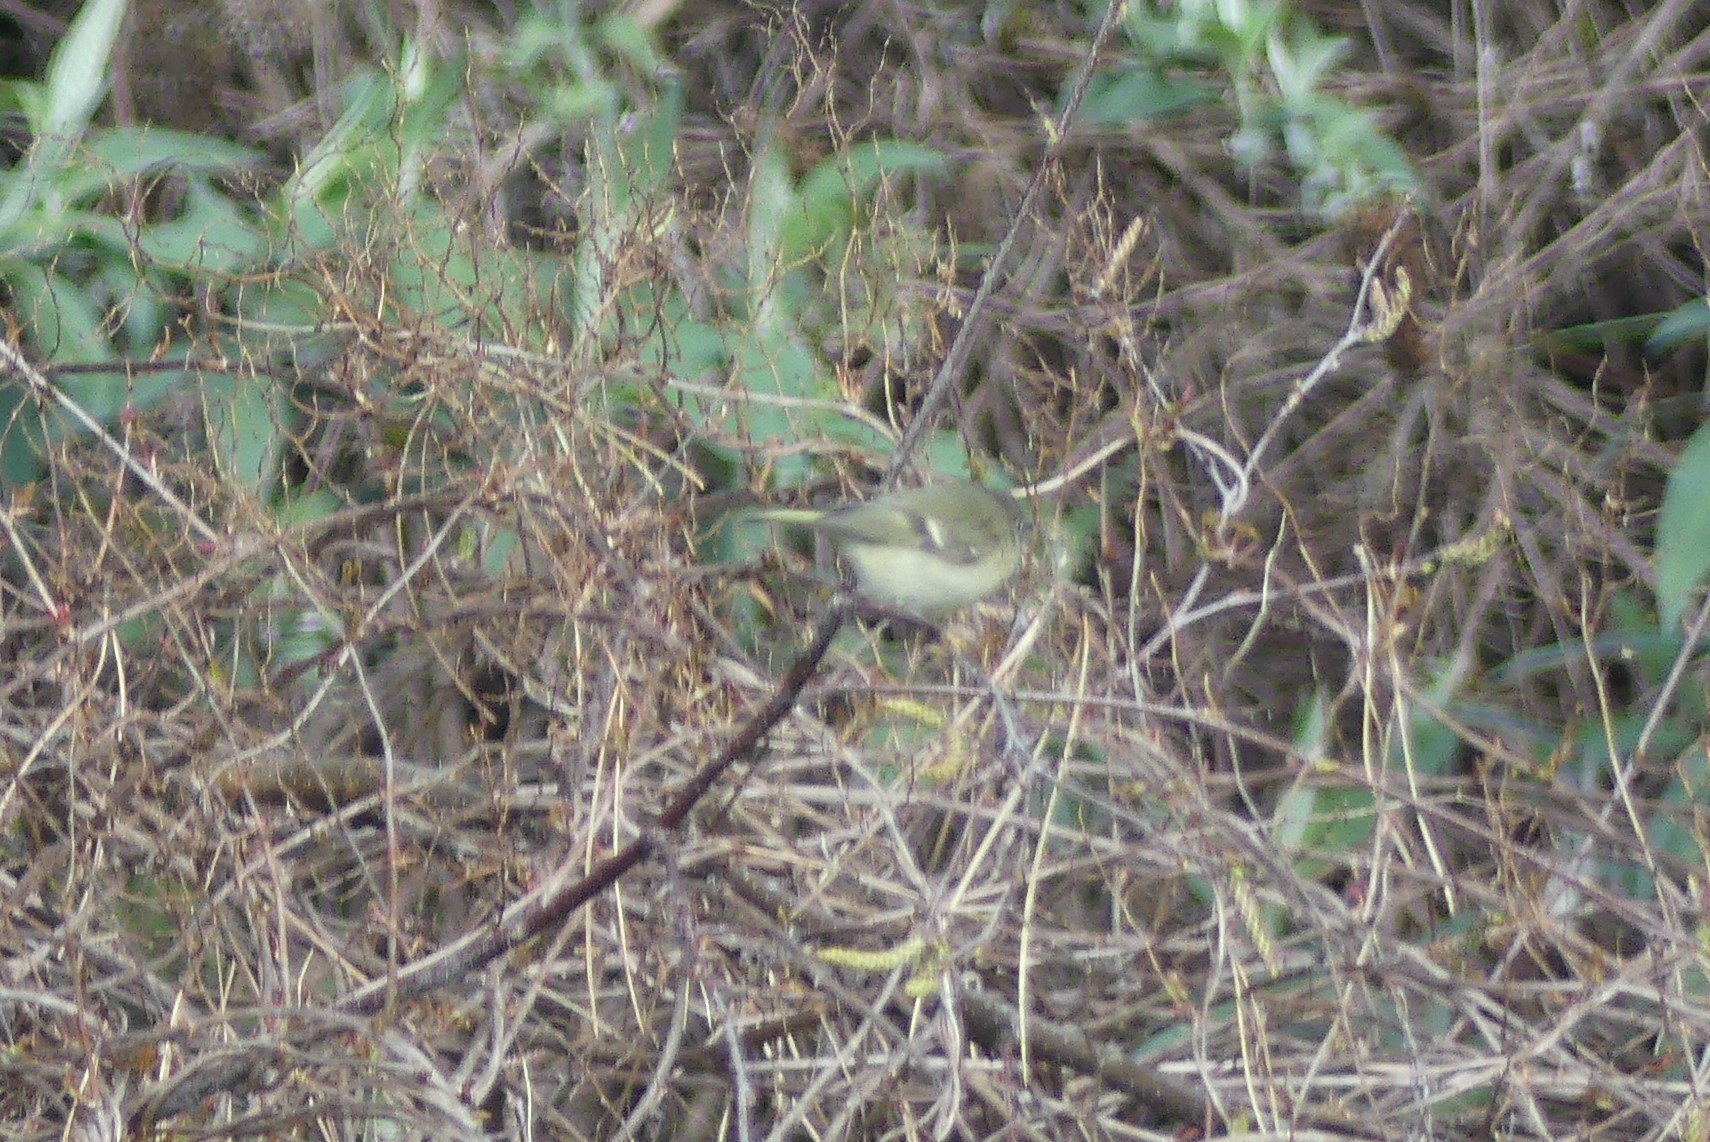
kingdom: Animalia
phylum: Chordata
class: Aves
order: Passeriformes
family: Regulidae
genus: Regulus
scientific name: Regulus calendula
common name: Ruby-crowned kinglet
